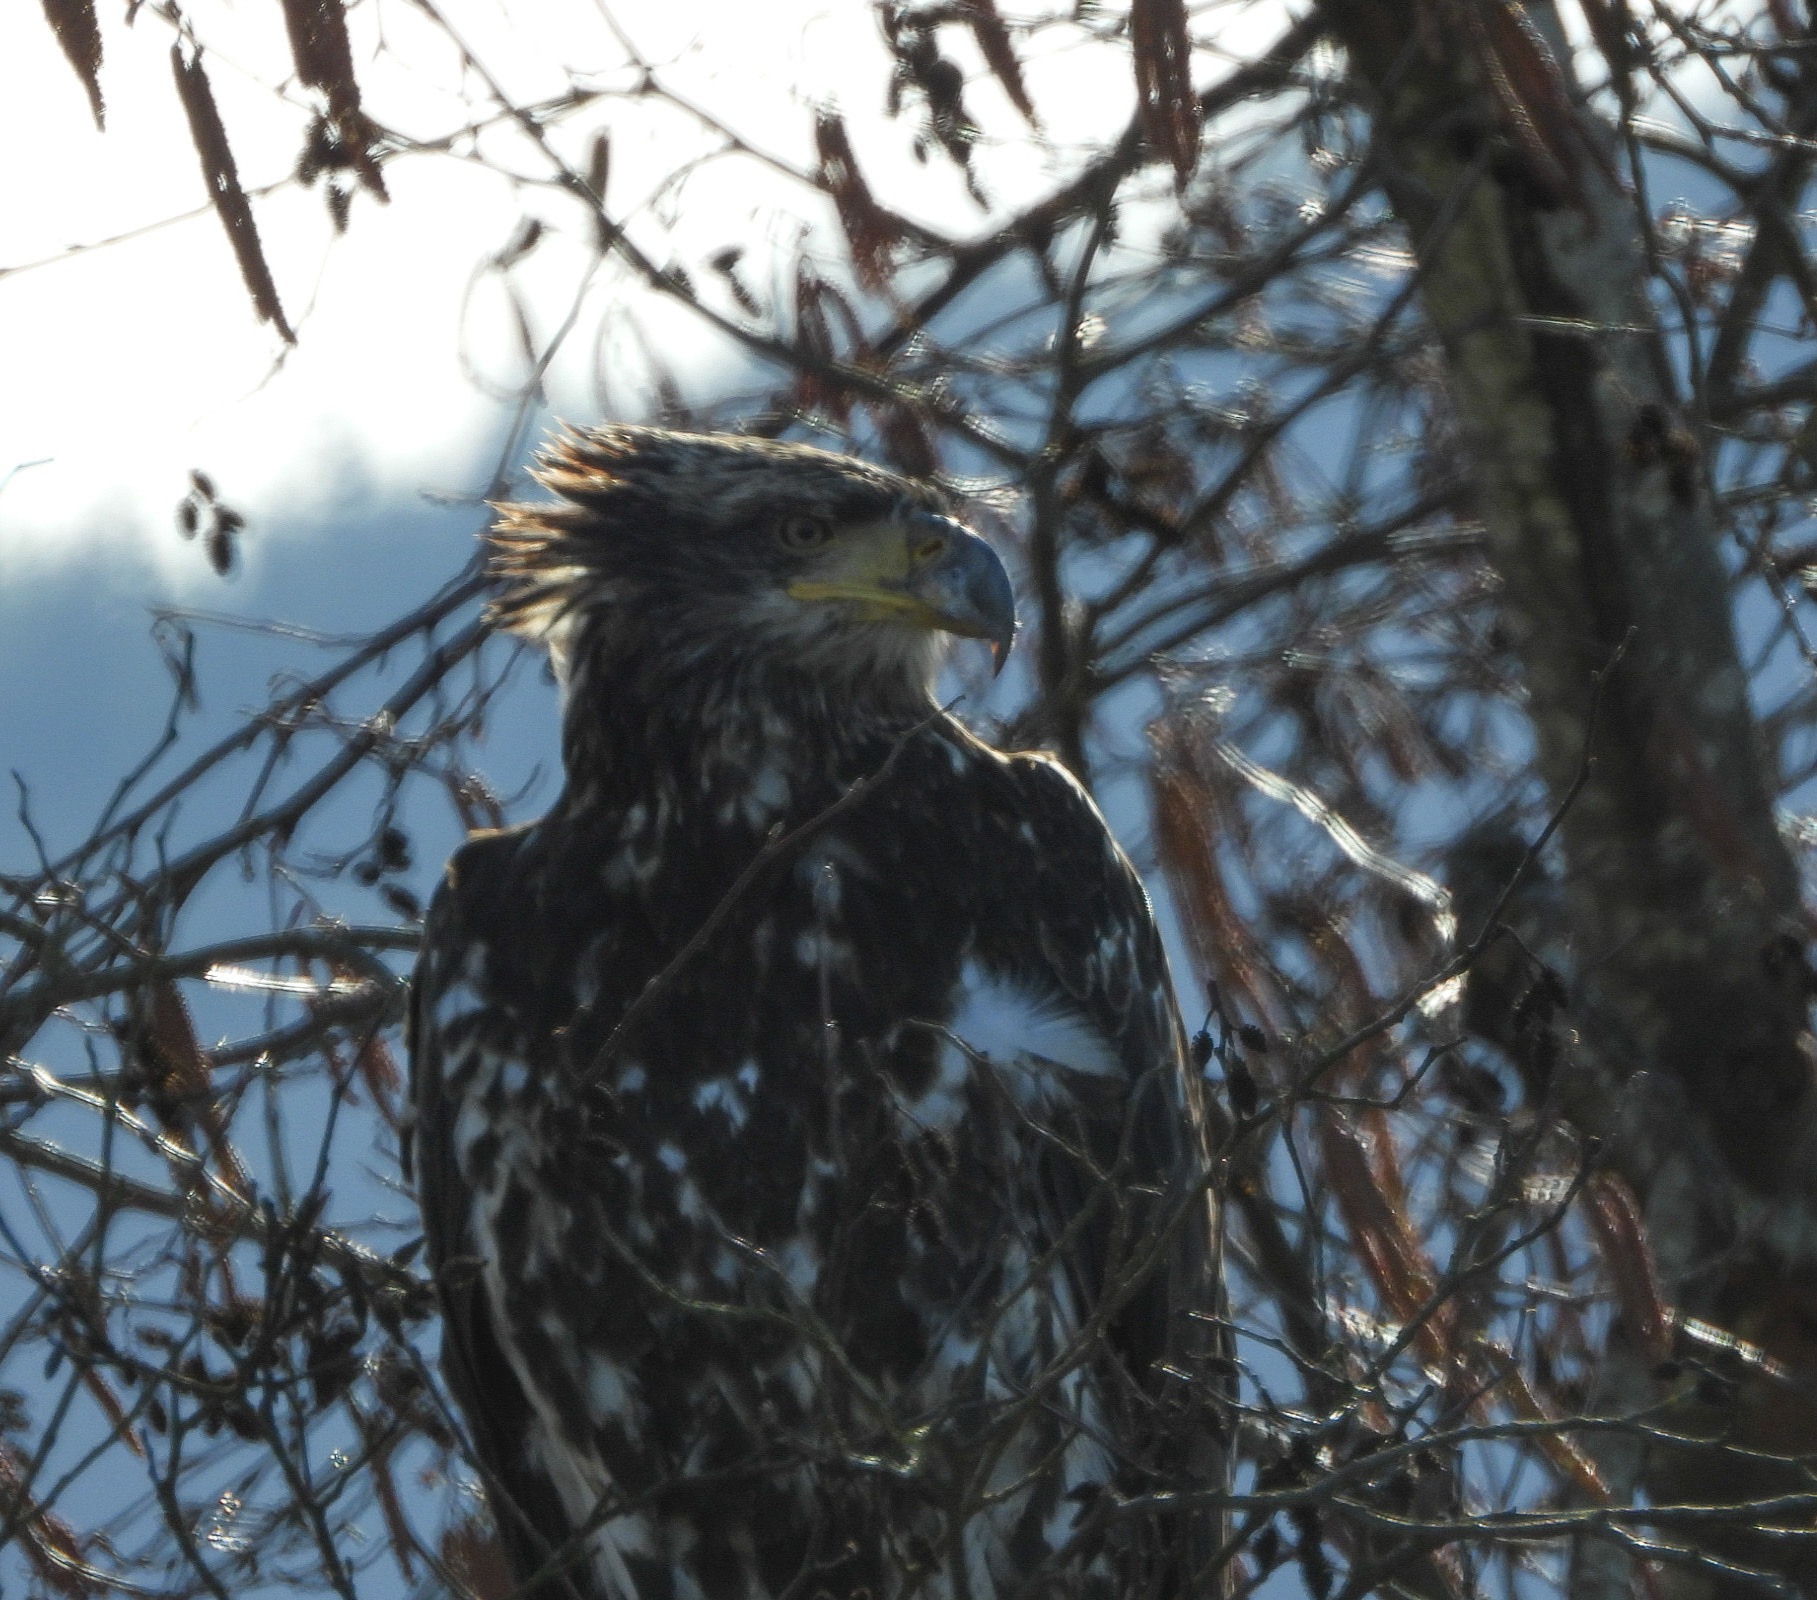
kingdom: Animalia
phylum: Chordata
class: Aves
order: Accipitriformes
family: Accipitridae
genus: Haliaeetus
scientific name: Haliaeetus leucocephalus
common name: Bald eagle
